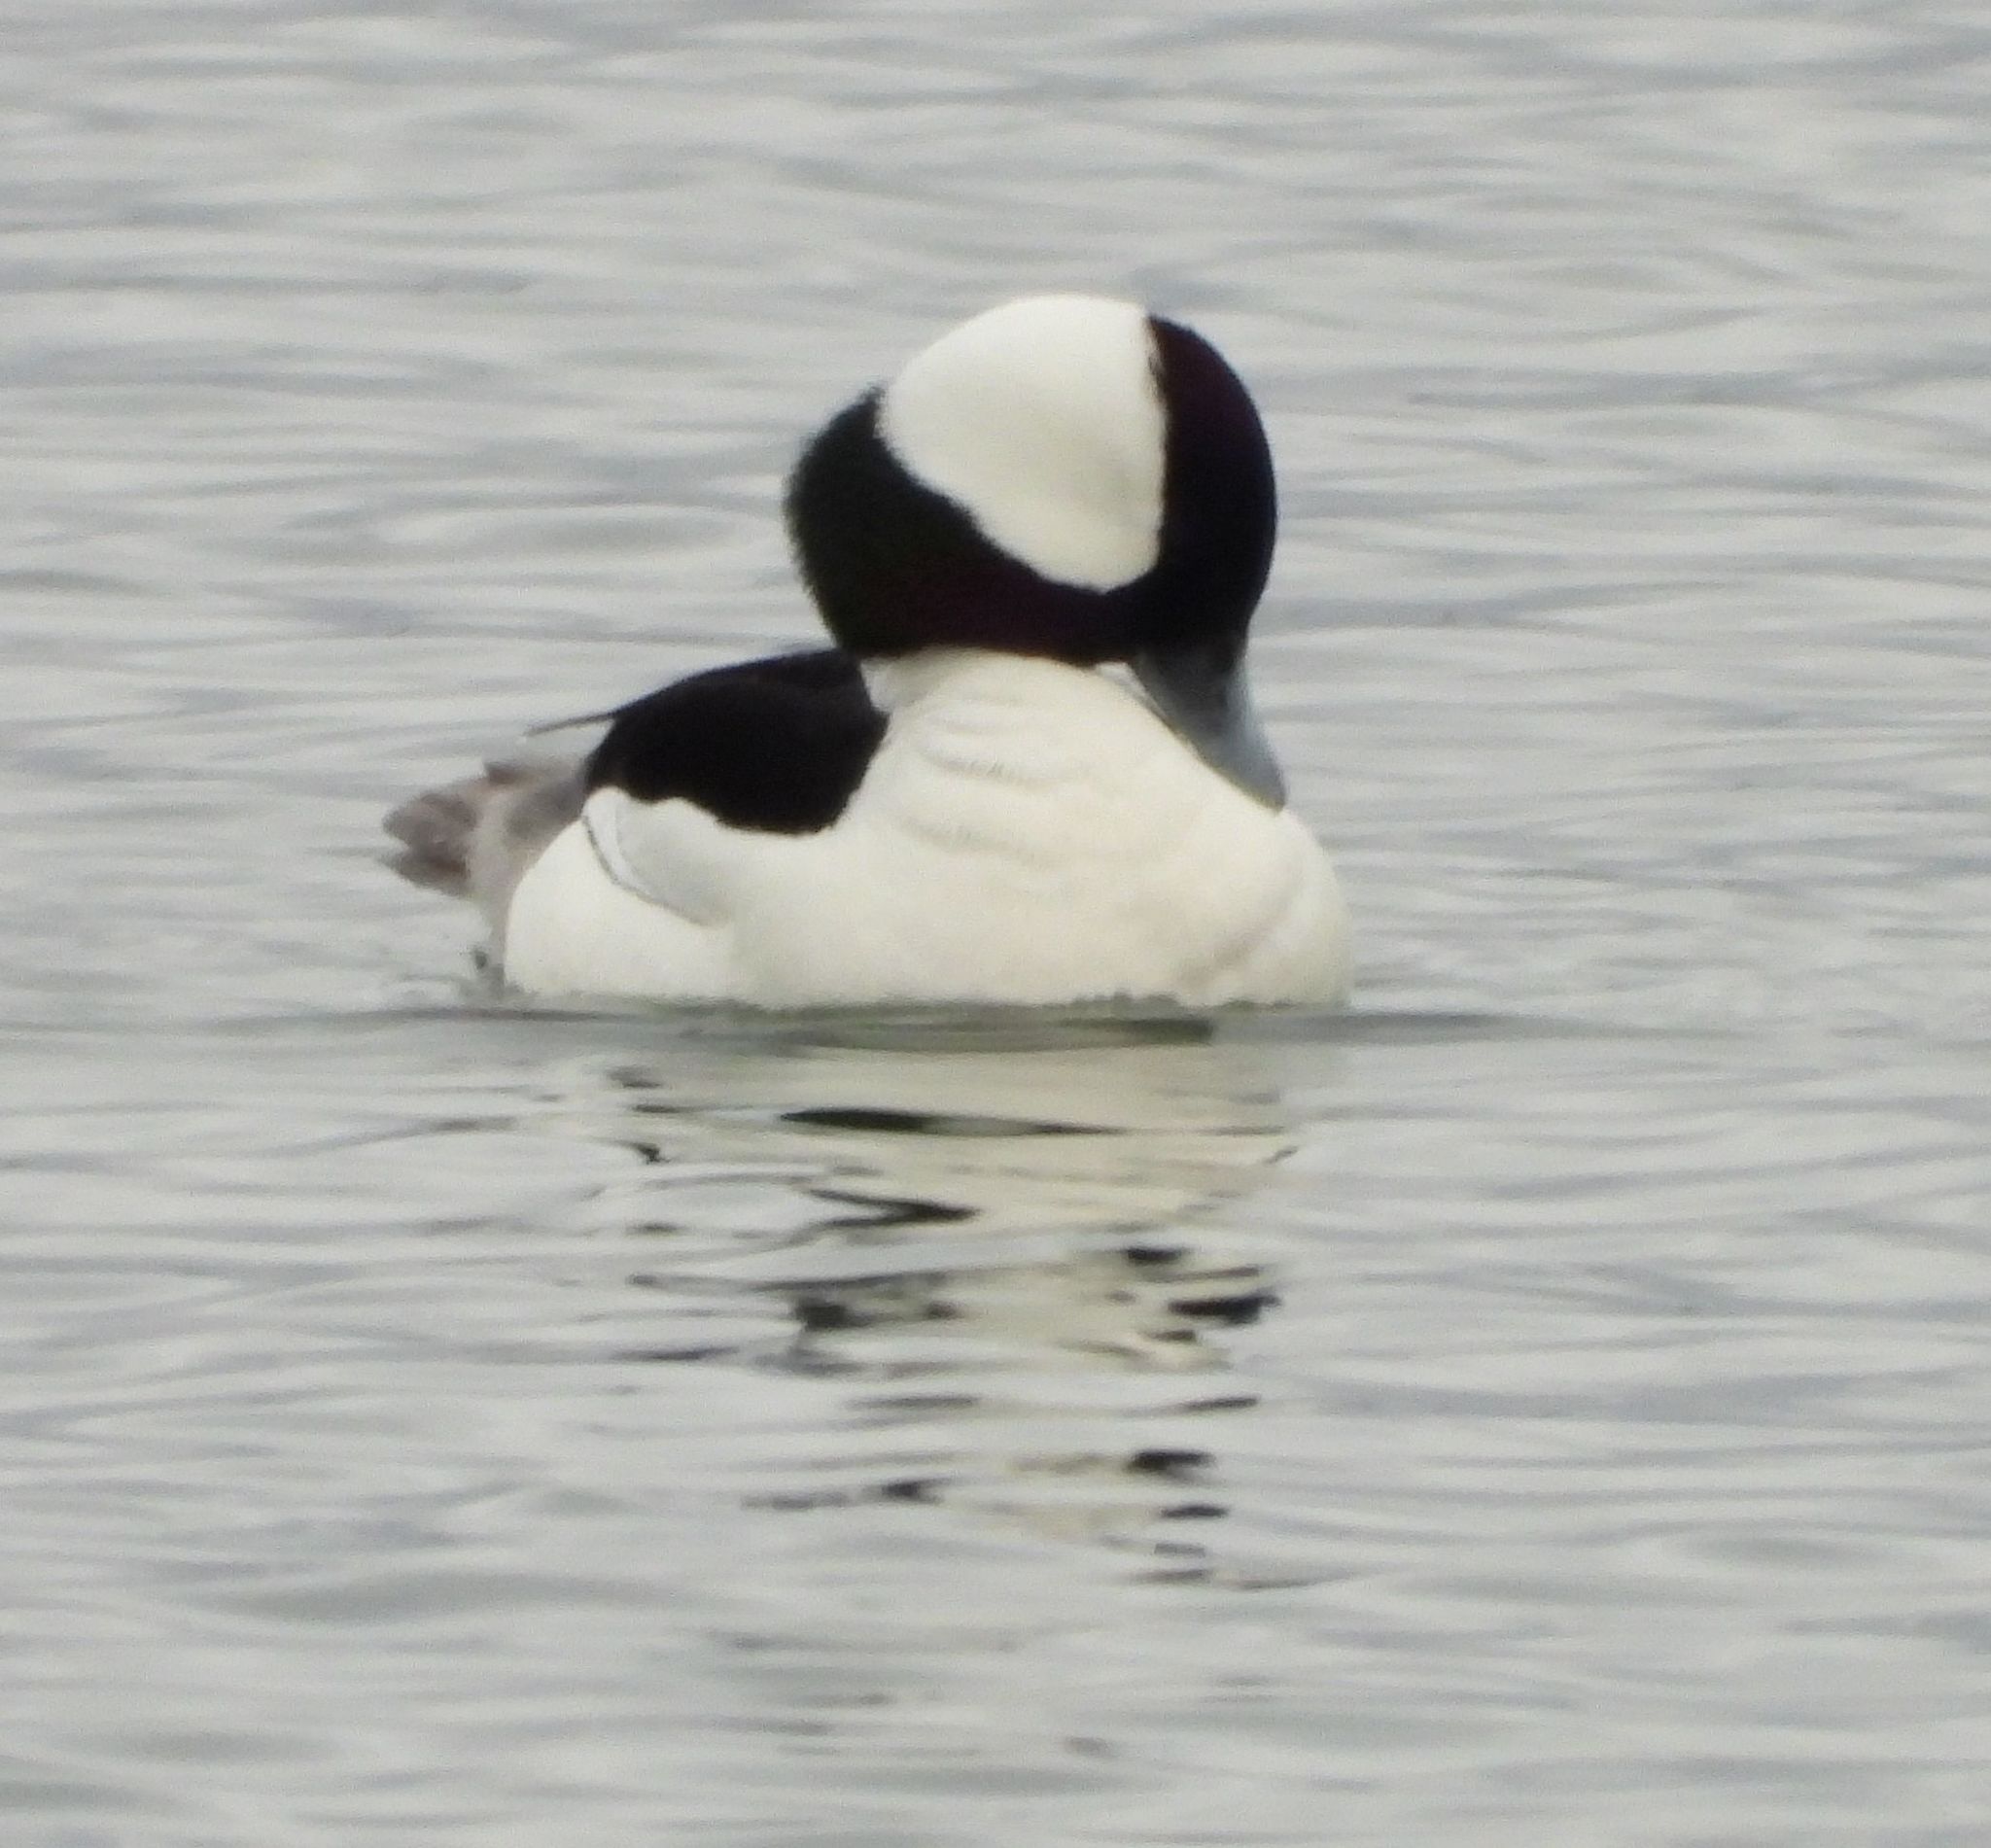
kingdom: Animalia
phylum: Chordata
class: Aves
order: Anseriformes
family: Anatidae
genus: Bucephala
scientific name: Bucephala albeola
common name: Bufflehead
